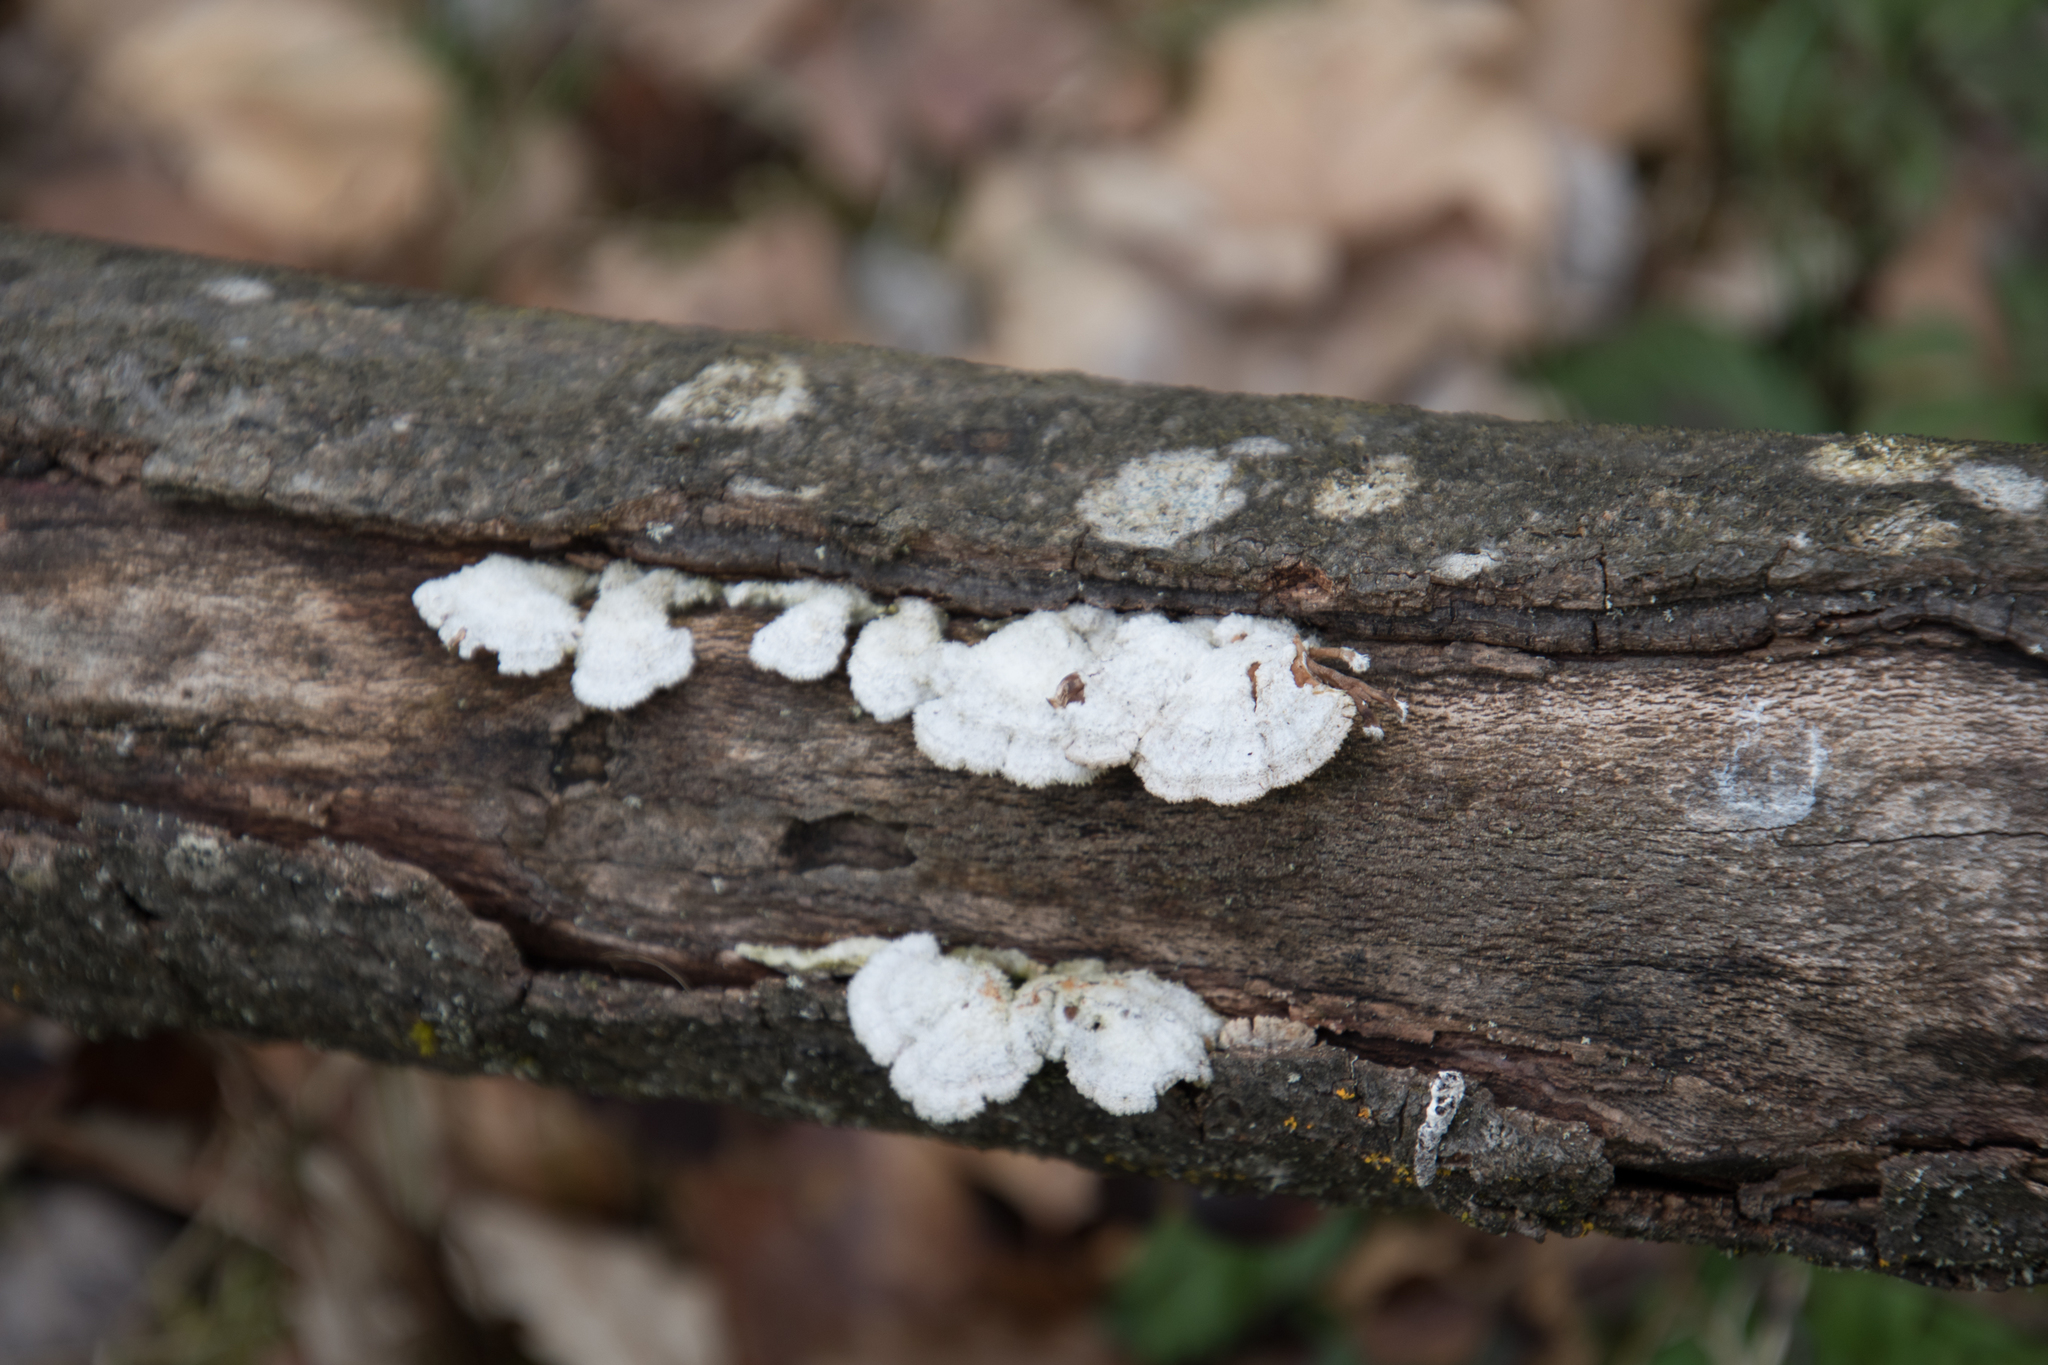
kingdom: Fungi
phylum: Basidiomycota
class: Agaricomycetes
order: Agaricales
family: Schizophyllaceae
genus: Schizophyllum
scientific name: Schizophyllum commune
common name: Common porecrust
